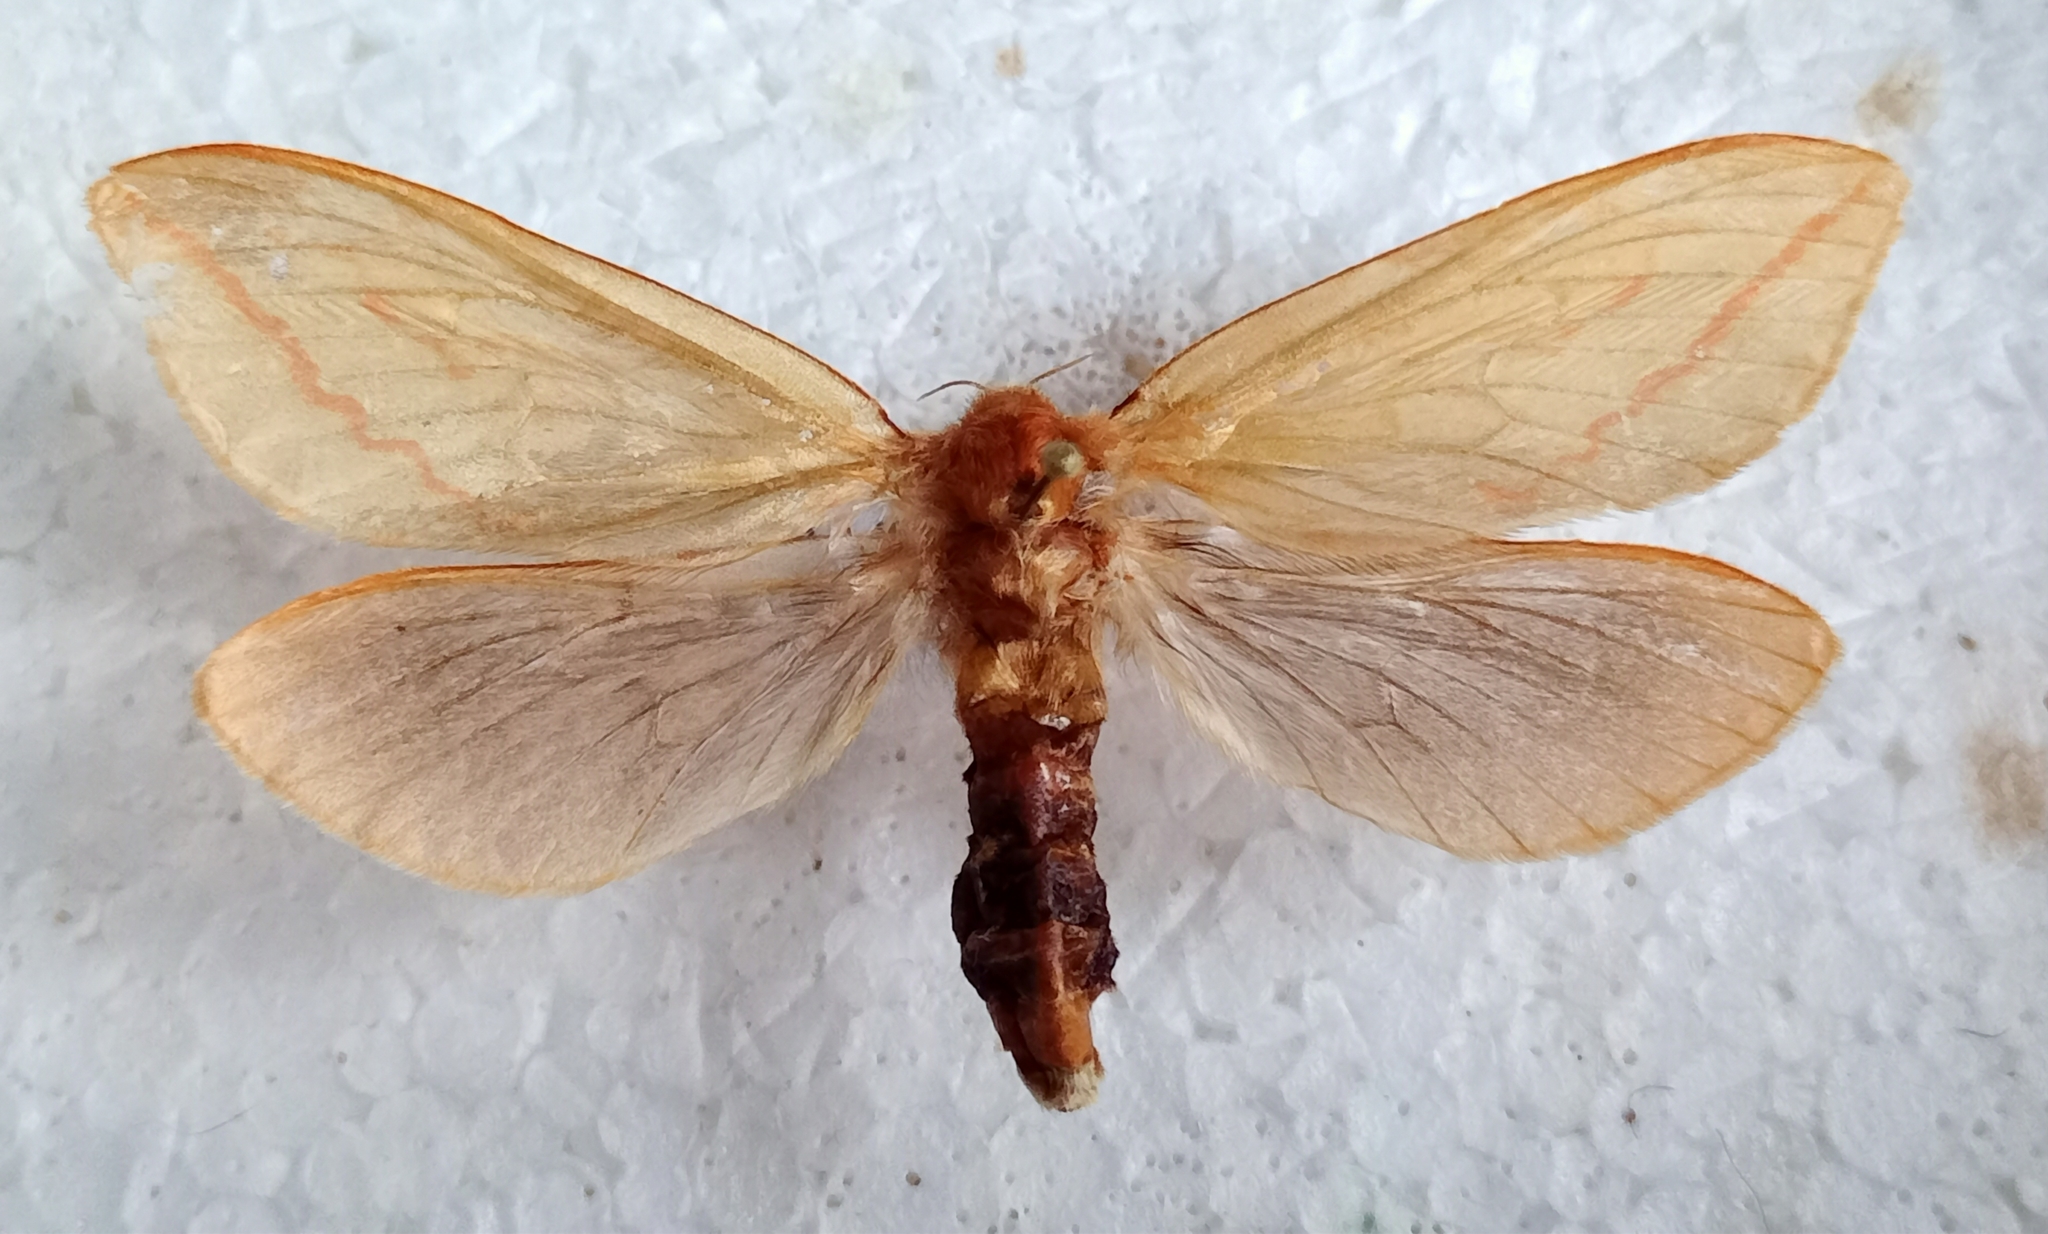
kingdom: Animalia
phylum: Arthropoda
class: Insecta
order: Lepidoptera
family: Hepialidae
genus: Hepialus
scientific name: Hepialus humuli
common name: Ghost moth
